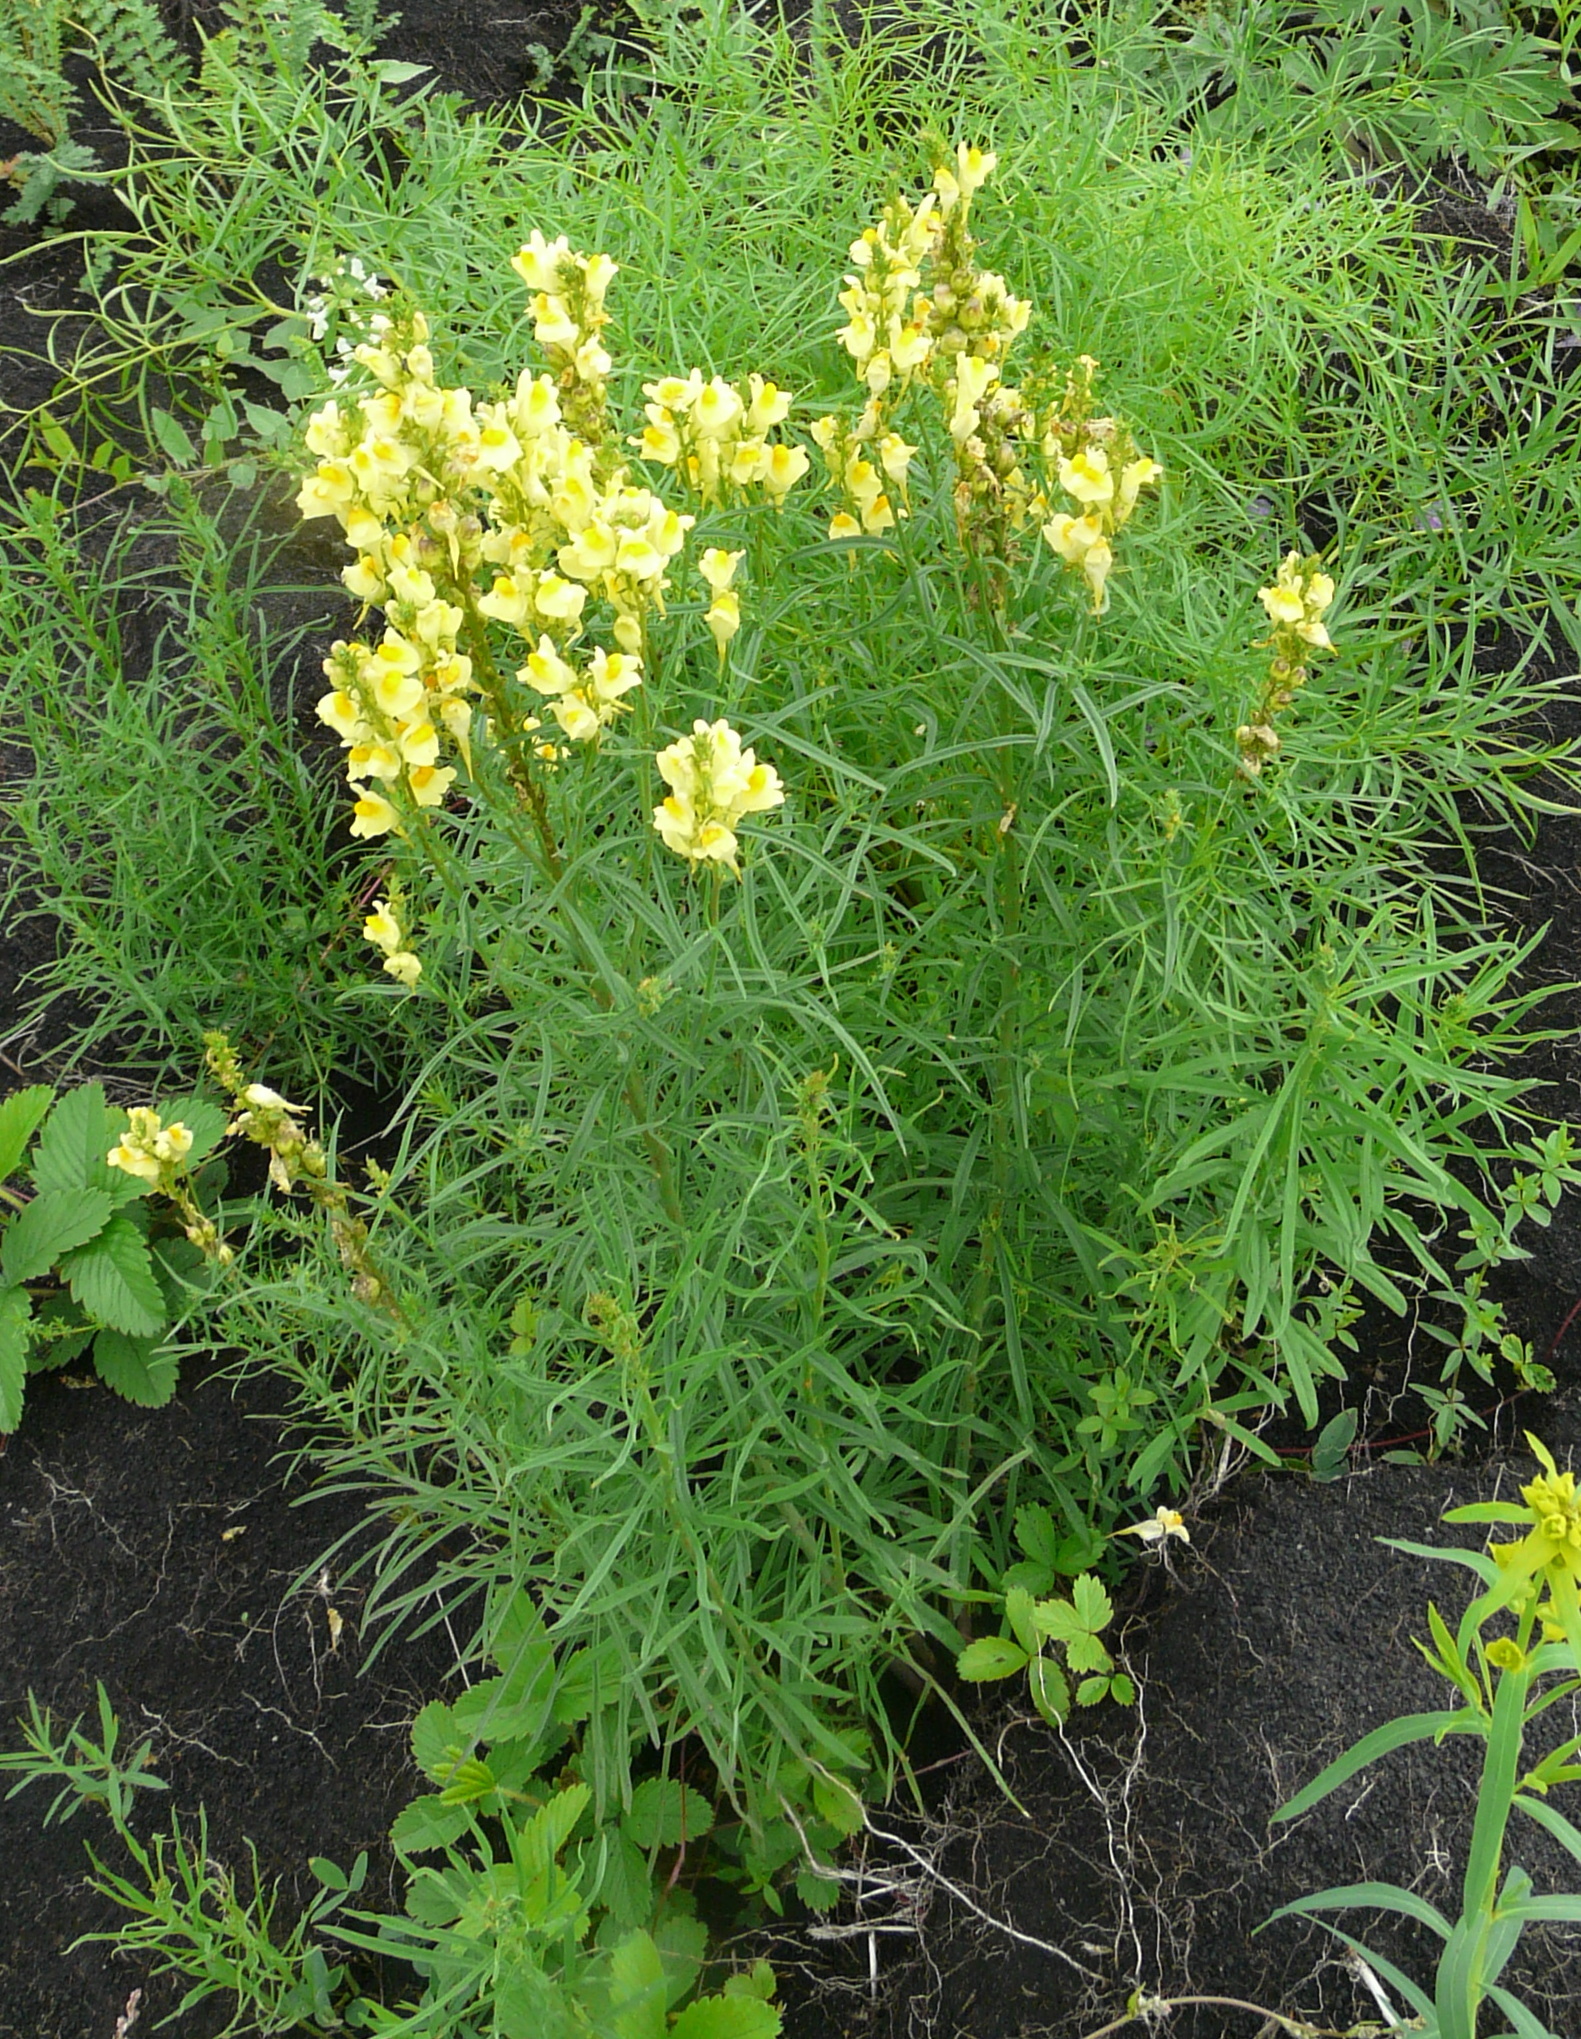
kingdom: Plantae
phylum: Tracheophyta
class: Magnoliopsida
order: Lamiales
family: Plantaginaceae
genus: Linaria
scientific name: Linaria vulgaris
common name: Butter and eggs
